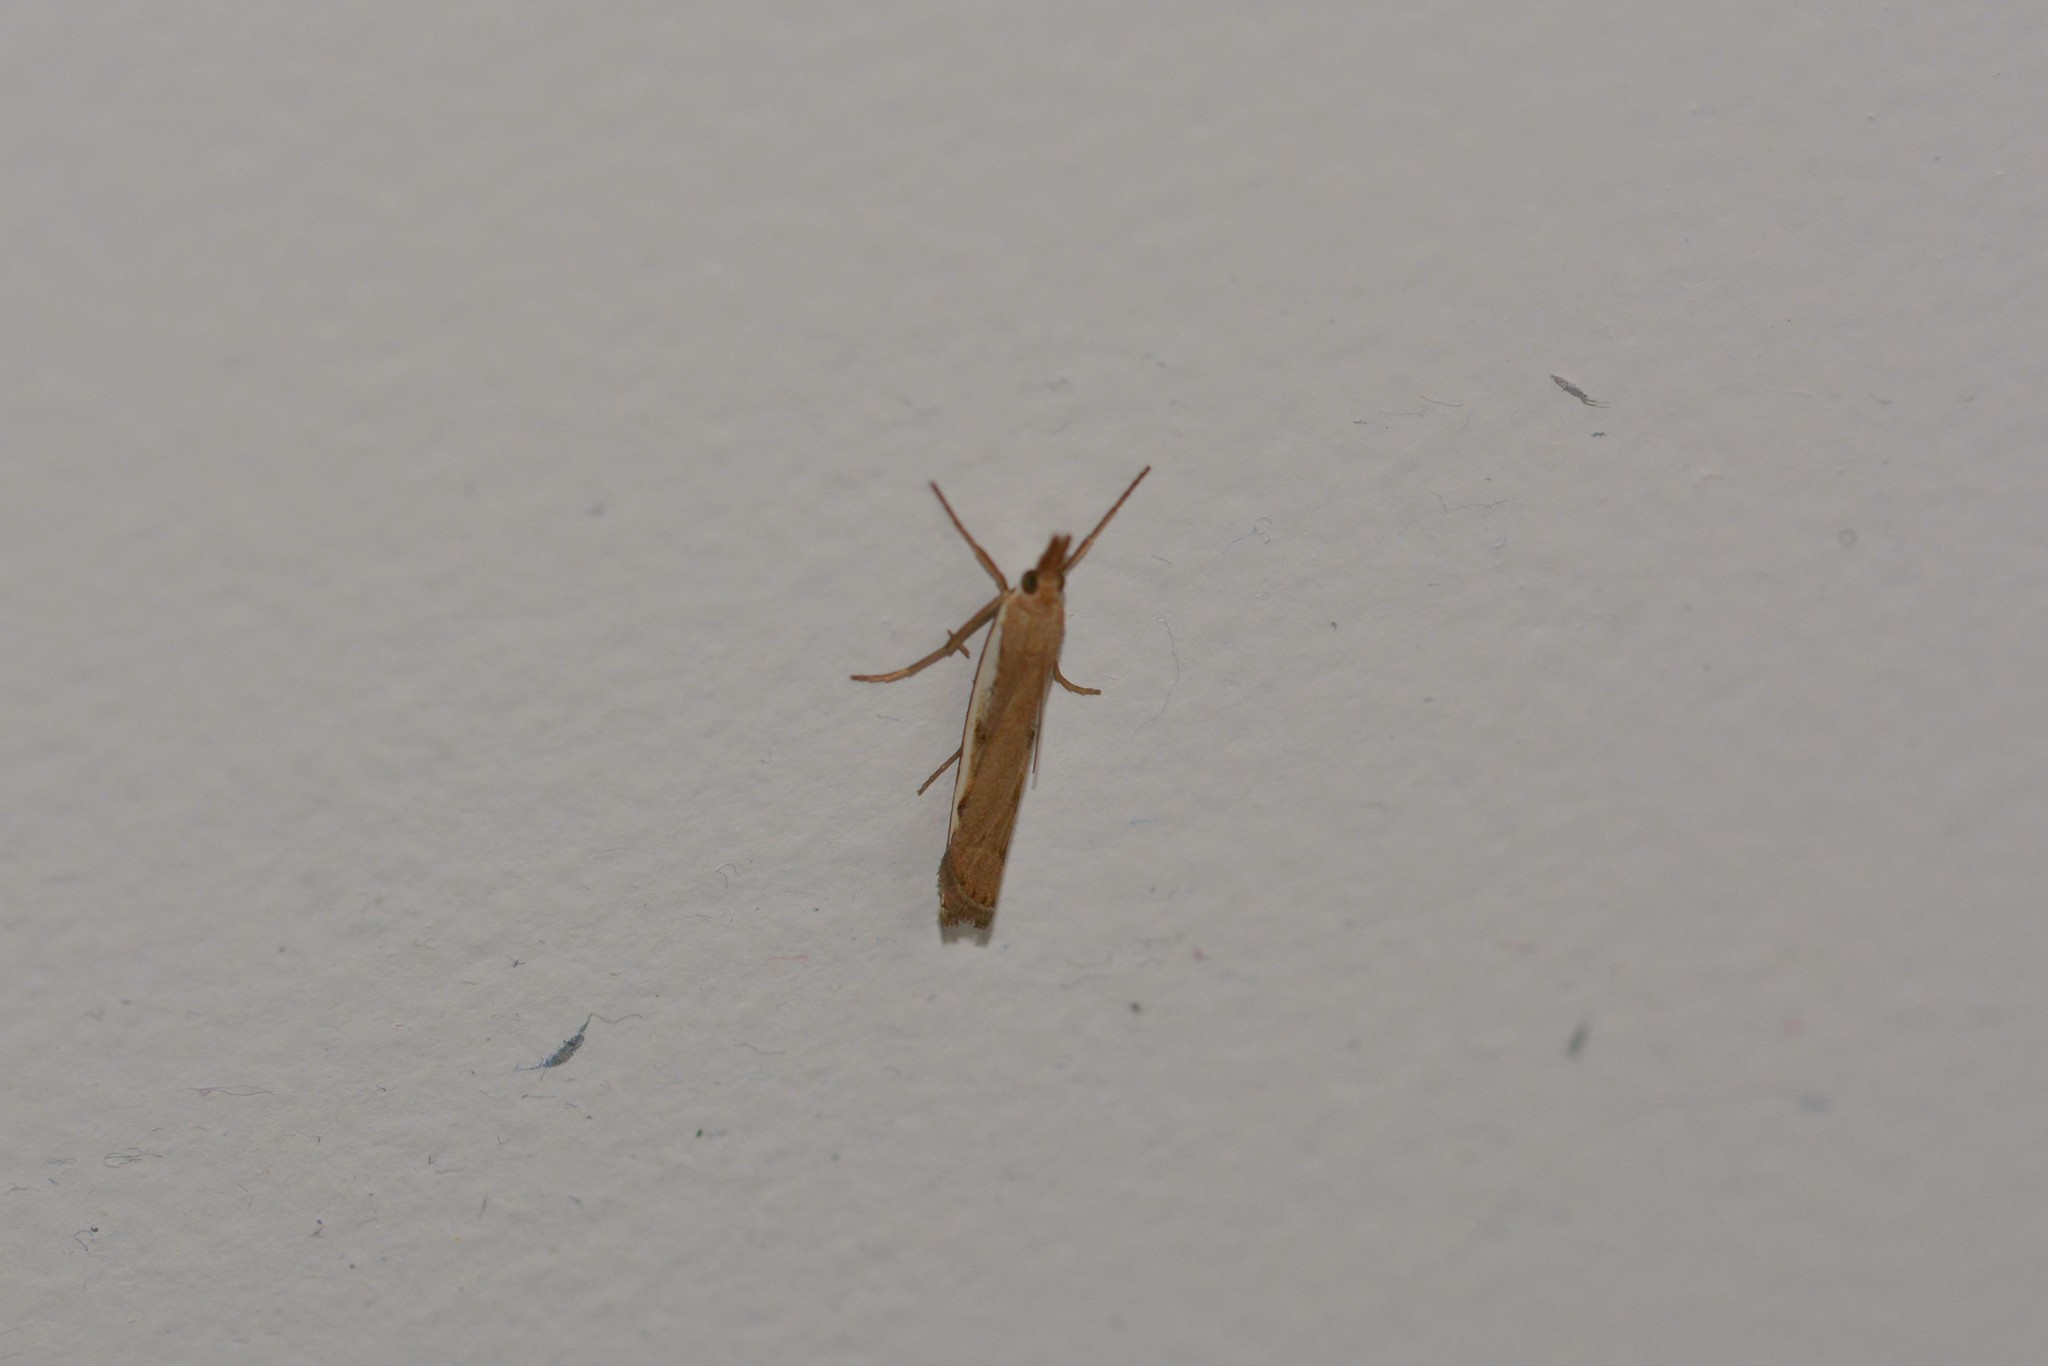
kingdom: Animalia
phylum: Arthropoda
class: Insecta
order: Lepidoptera
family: Crambidae
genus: Orocrambus
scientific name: Orocrambus flexuosellus
